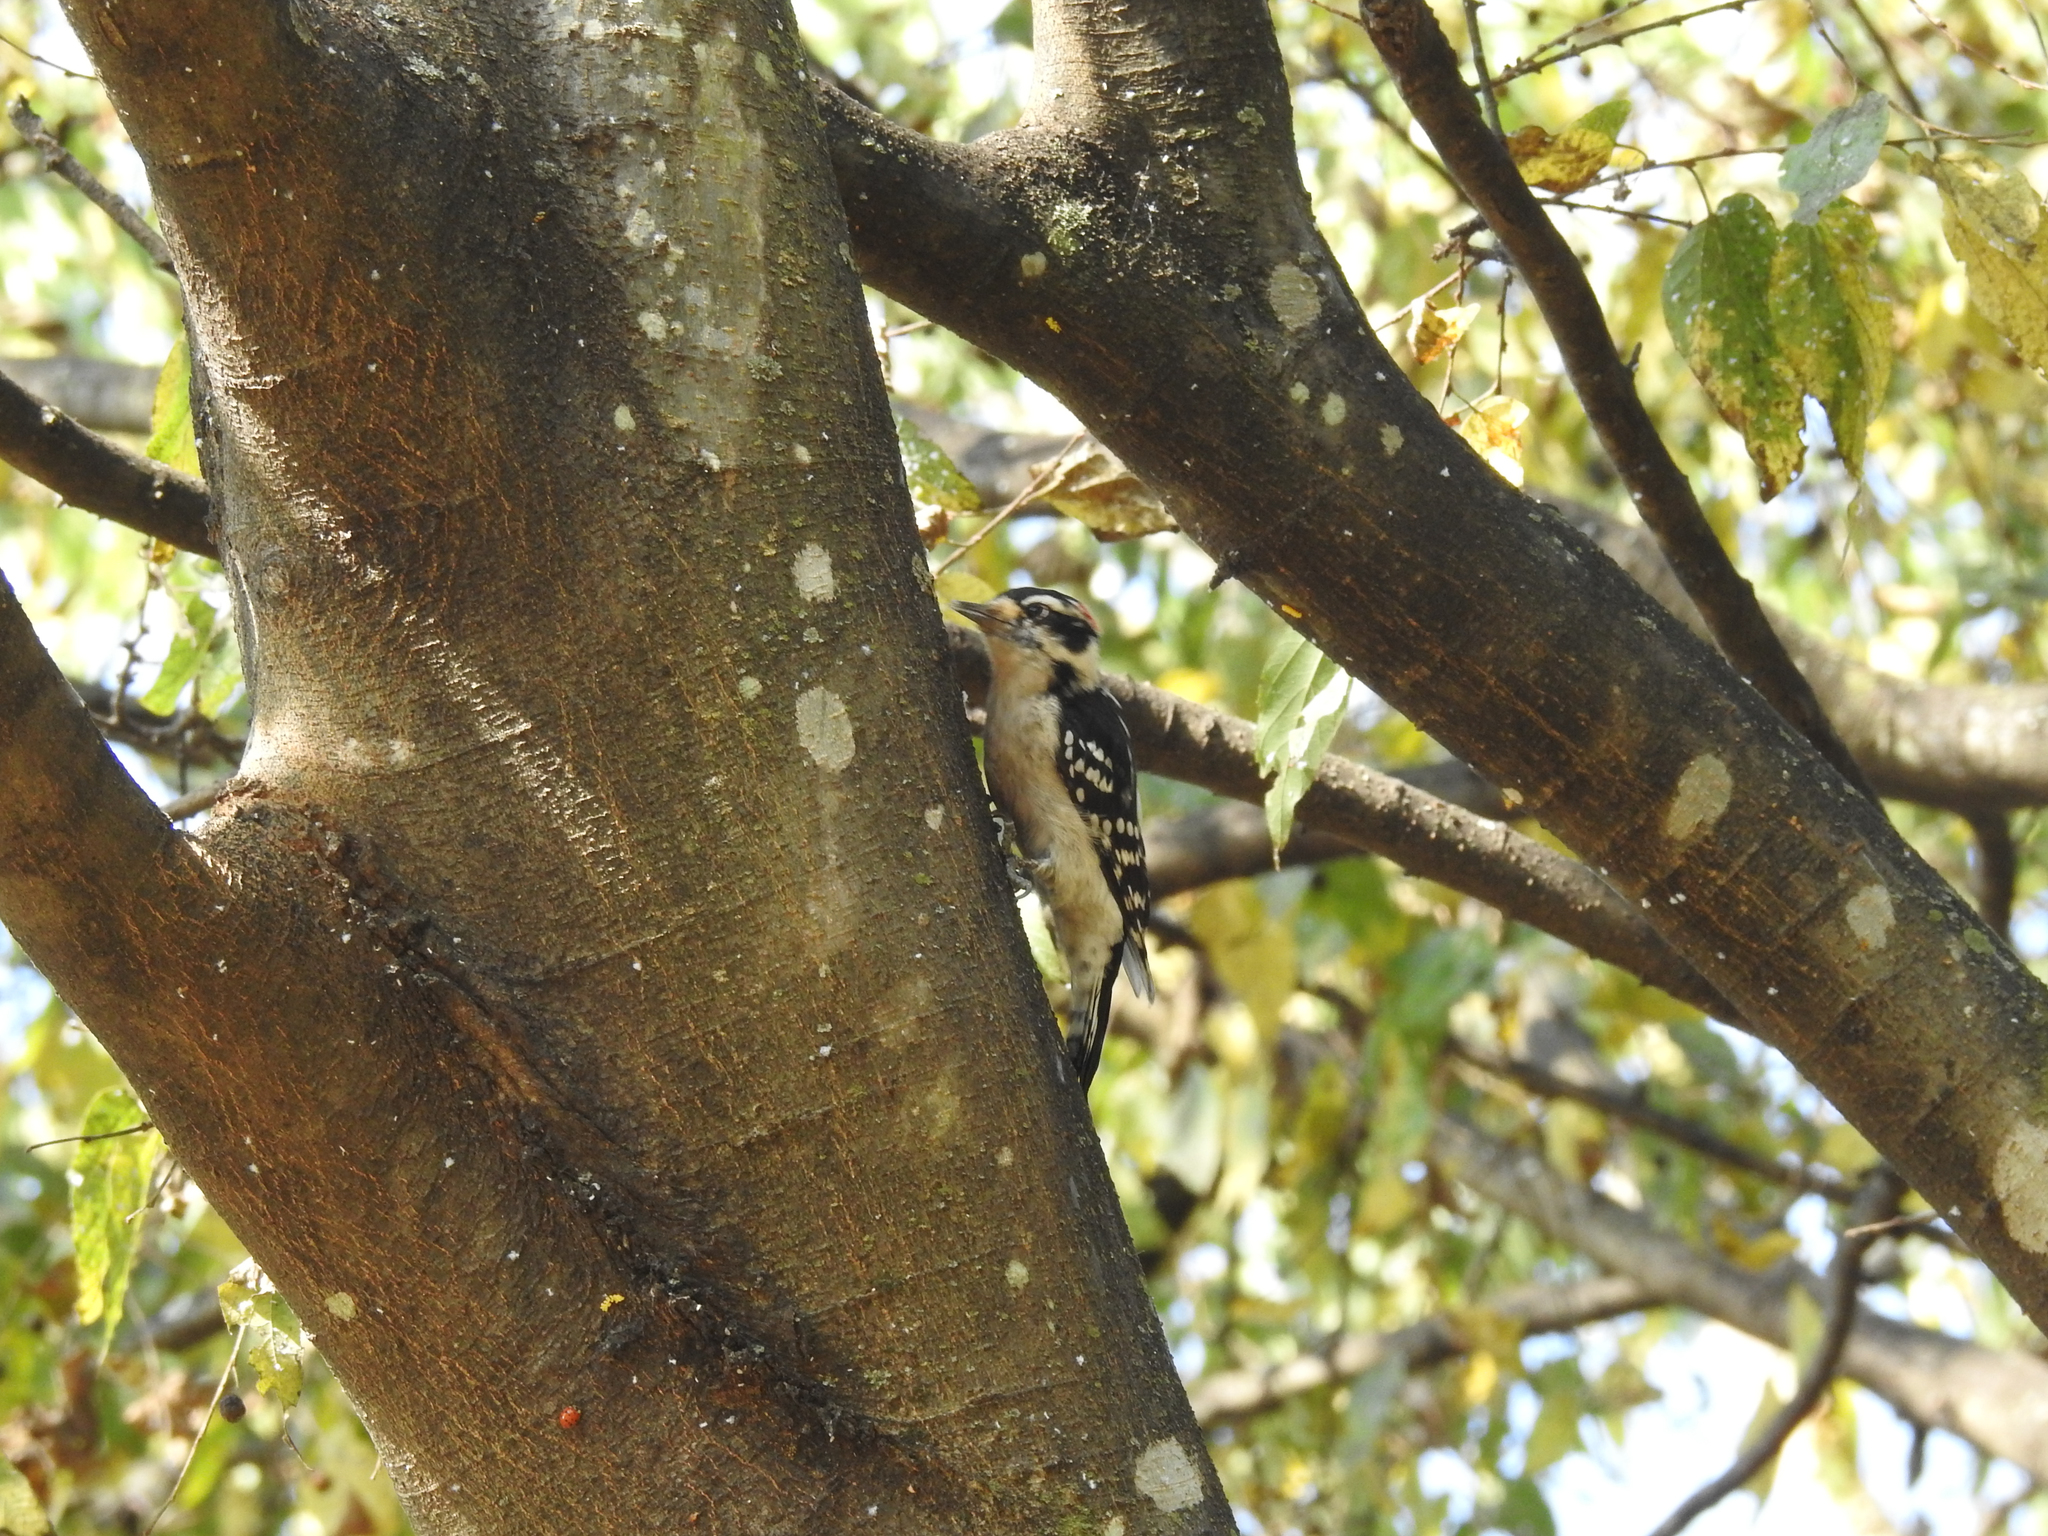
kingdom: Animalia
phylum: Chordata
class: Aves
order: Piciformes
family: Picidae
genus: Dryobates
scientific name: Dryobates pubescens
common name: Downy woodpecker
